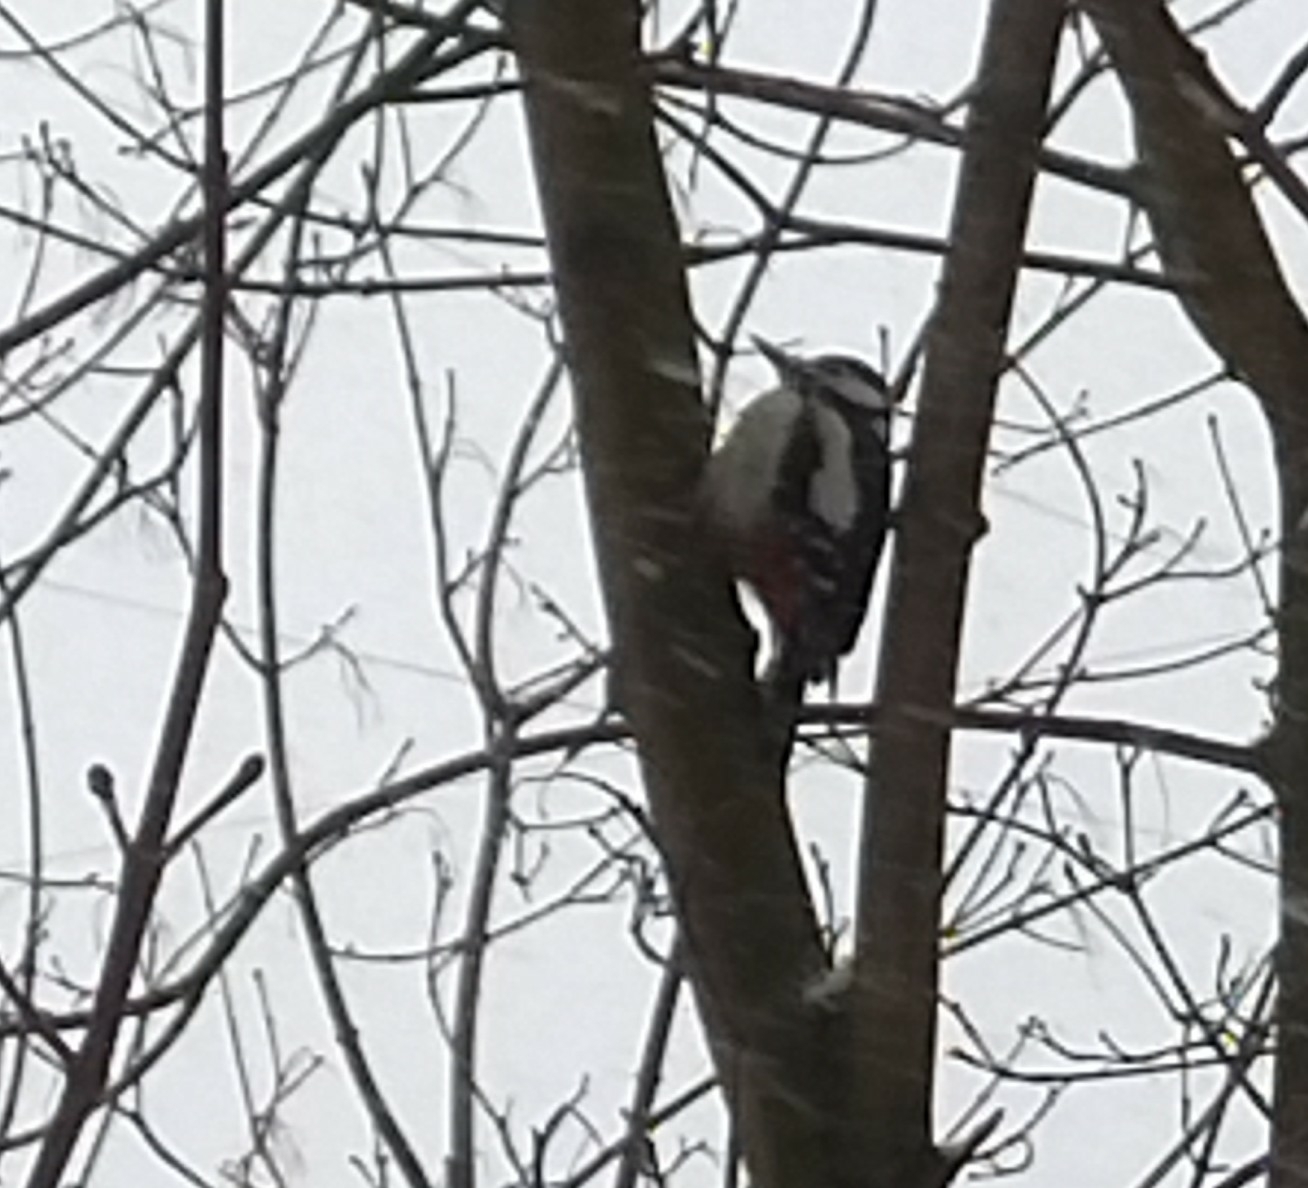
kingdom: Animalia
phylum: Chordata
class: Aves
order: Piciformes
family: Picidae
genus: Dendrocopos
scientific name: Dendrocopos major
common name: Great spotted woodpecker
